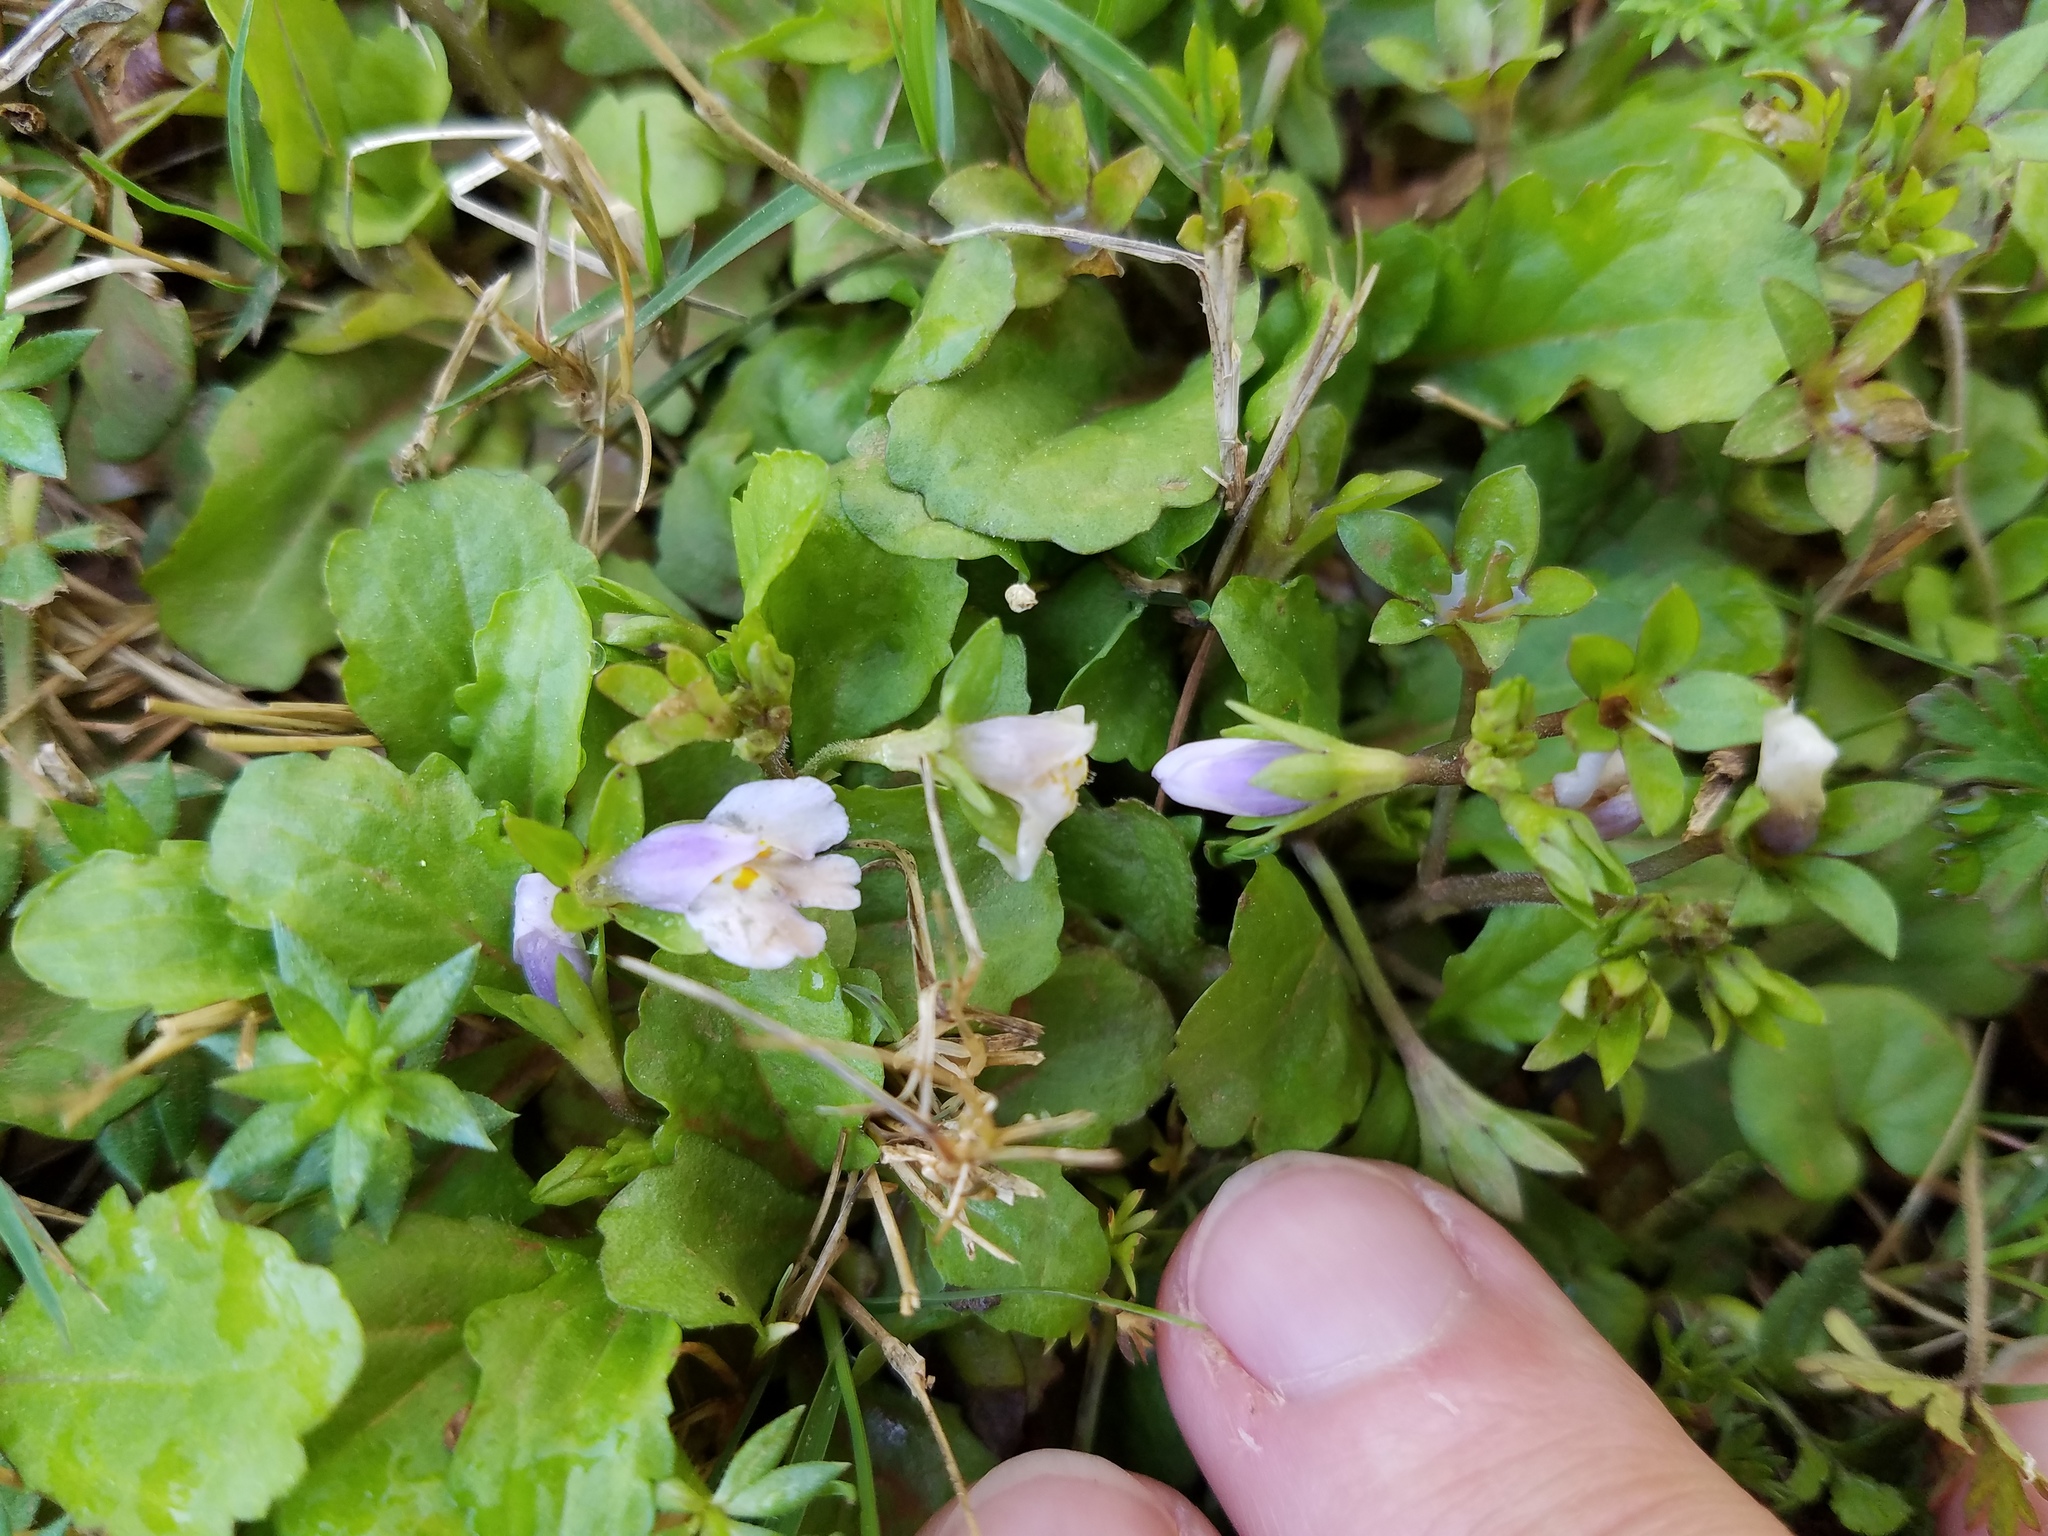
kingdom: Plantae
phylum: Tracheophyta
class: Magnoliopsida
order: Lamiales
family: Mazaceae
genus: Mazus
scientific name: Mazus pumilus
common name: Japanese mazus
